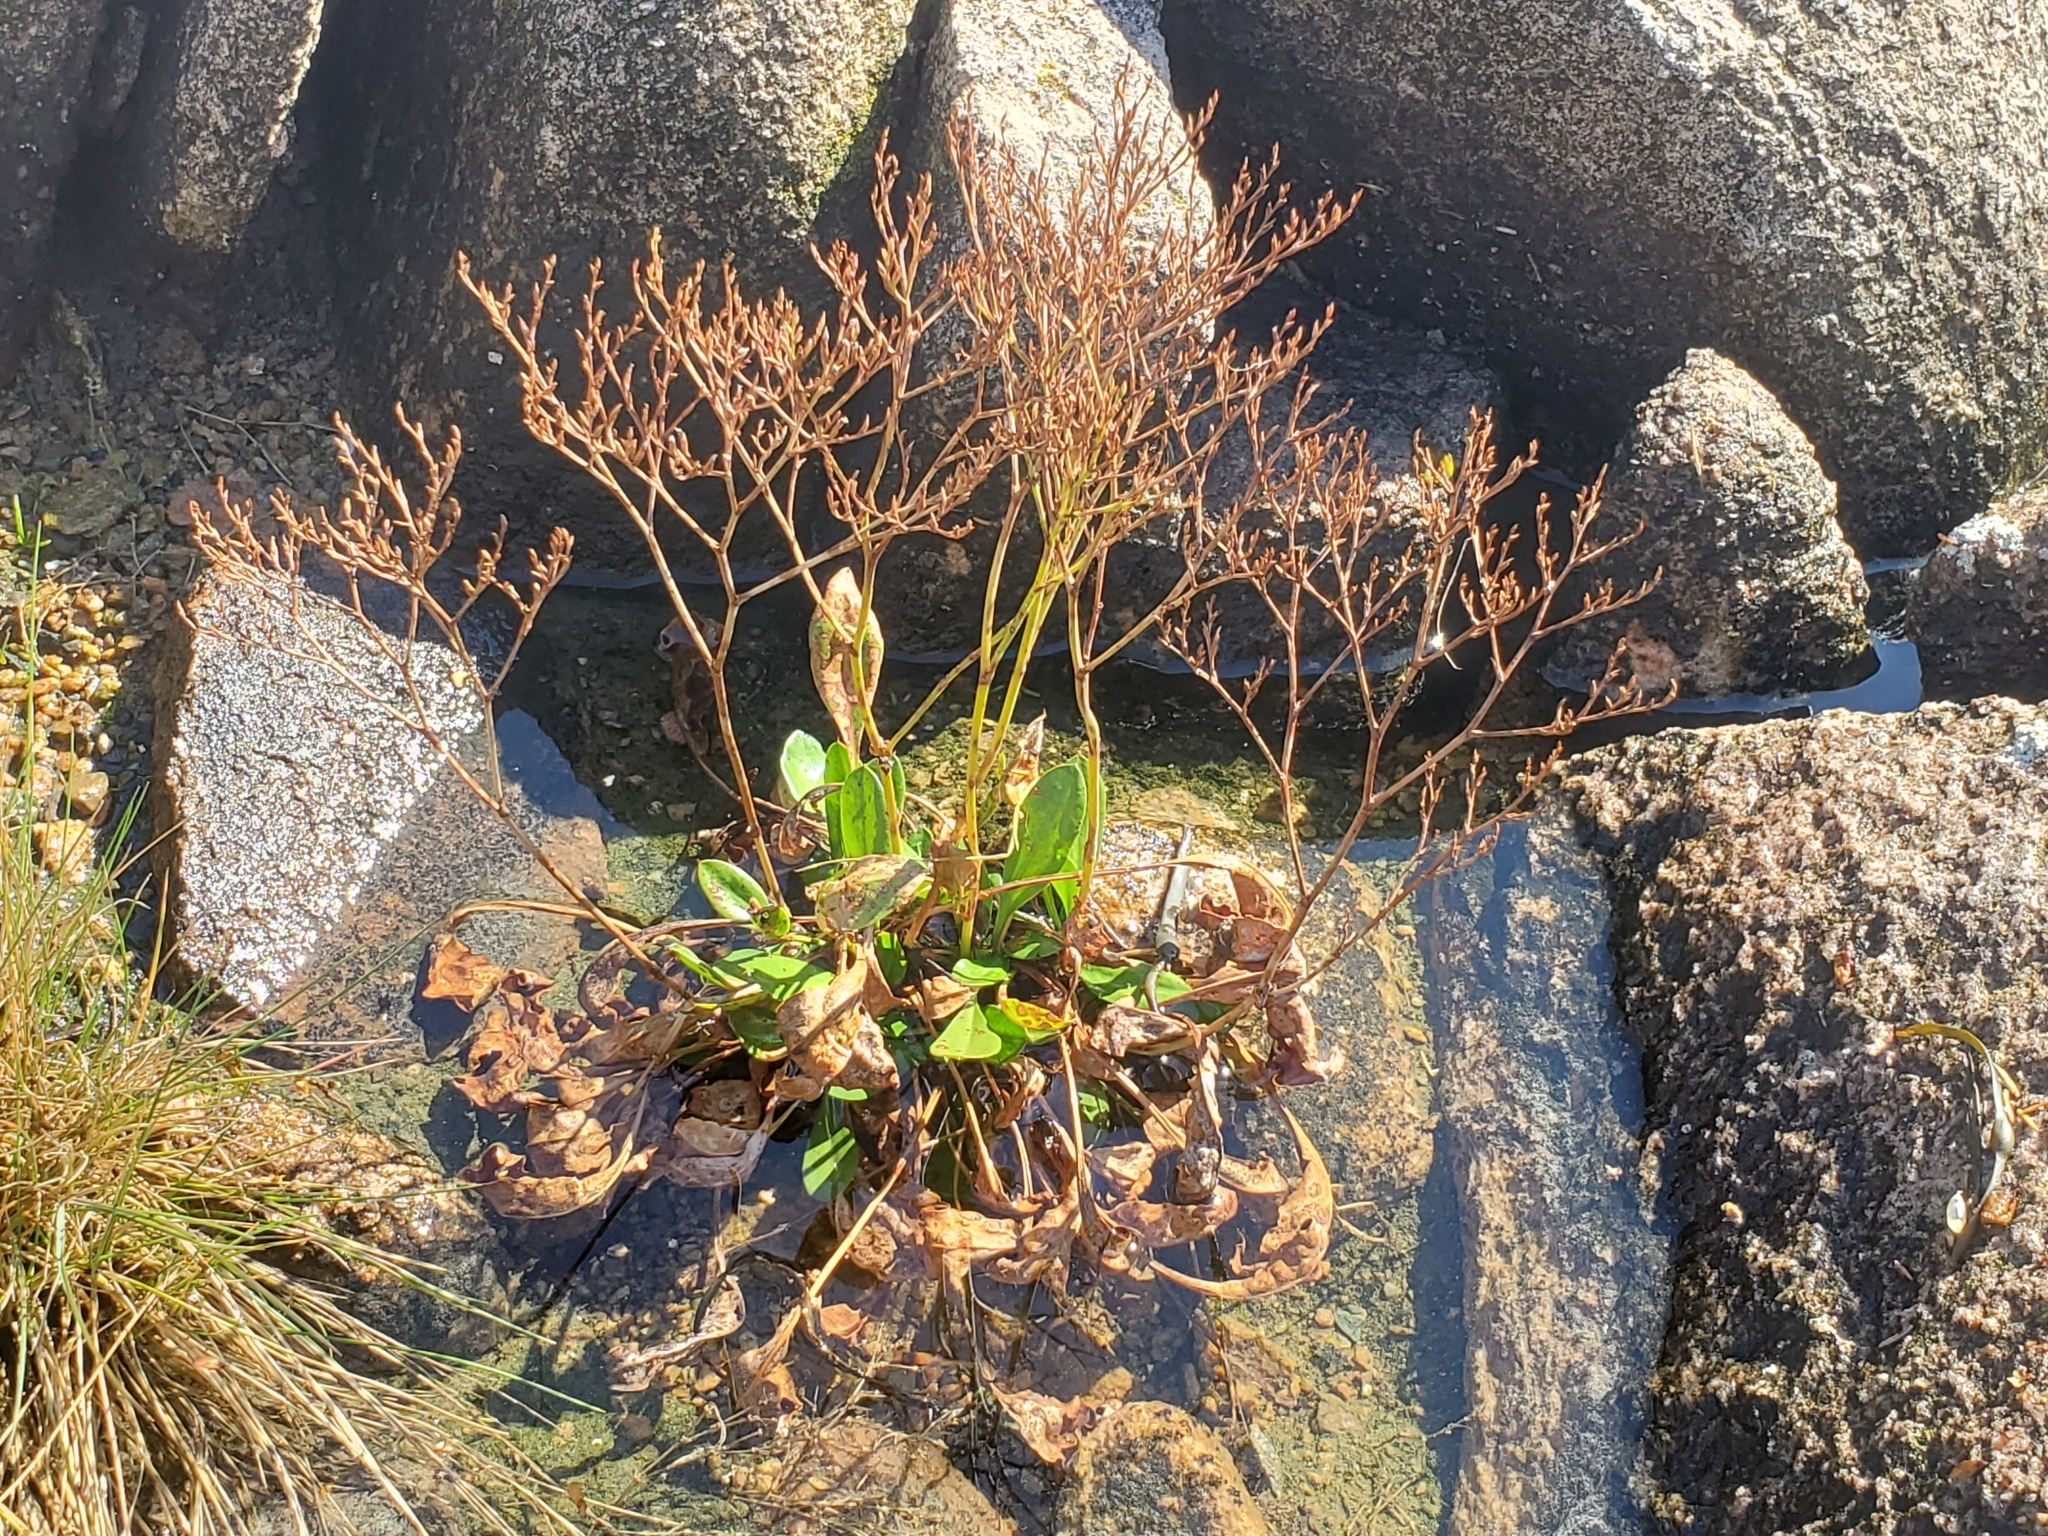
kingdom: Plantae
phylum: Tracheophyta
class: Magnoliopsida
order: Caryophyllales
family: Plumbaginaceae
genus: Limonium
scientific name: Limonium carolinianum
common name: Carolina sea lavender
